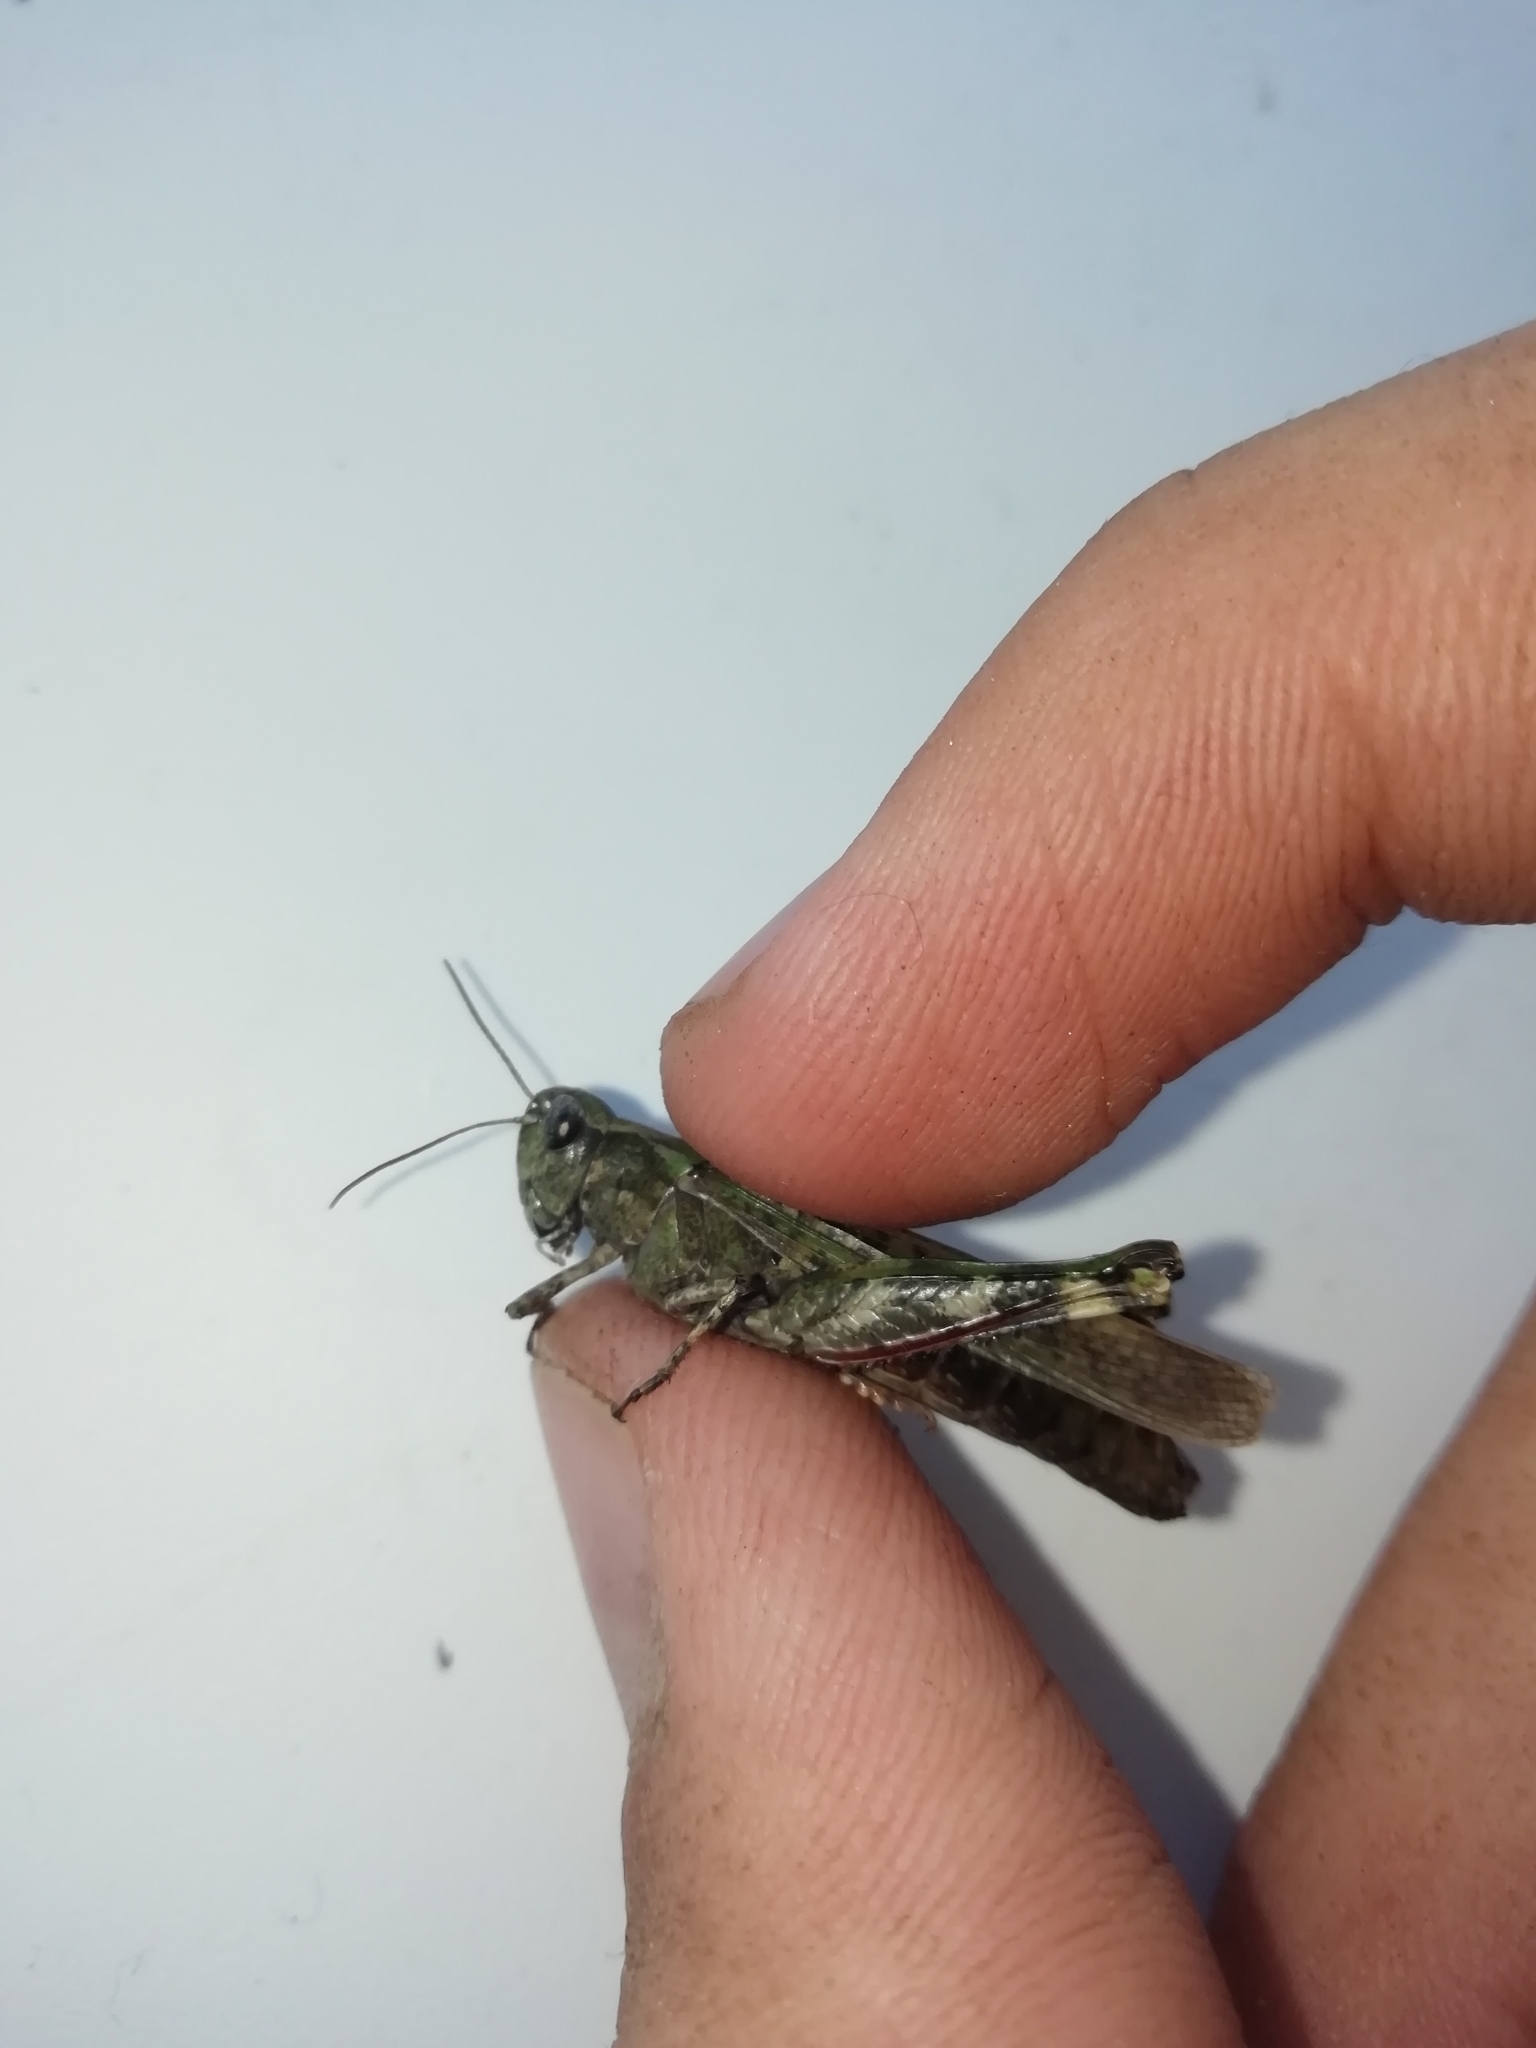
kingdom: Animalia
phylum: Arthropoda
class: Insecta
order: Orthoptera
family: Acrididae
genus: Epacromius
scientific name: Epacromius pulverulentus
